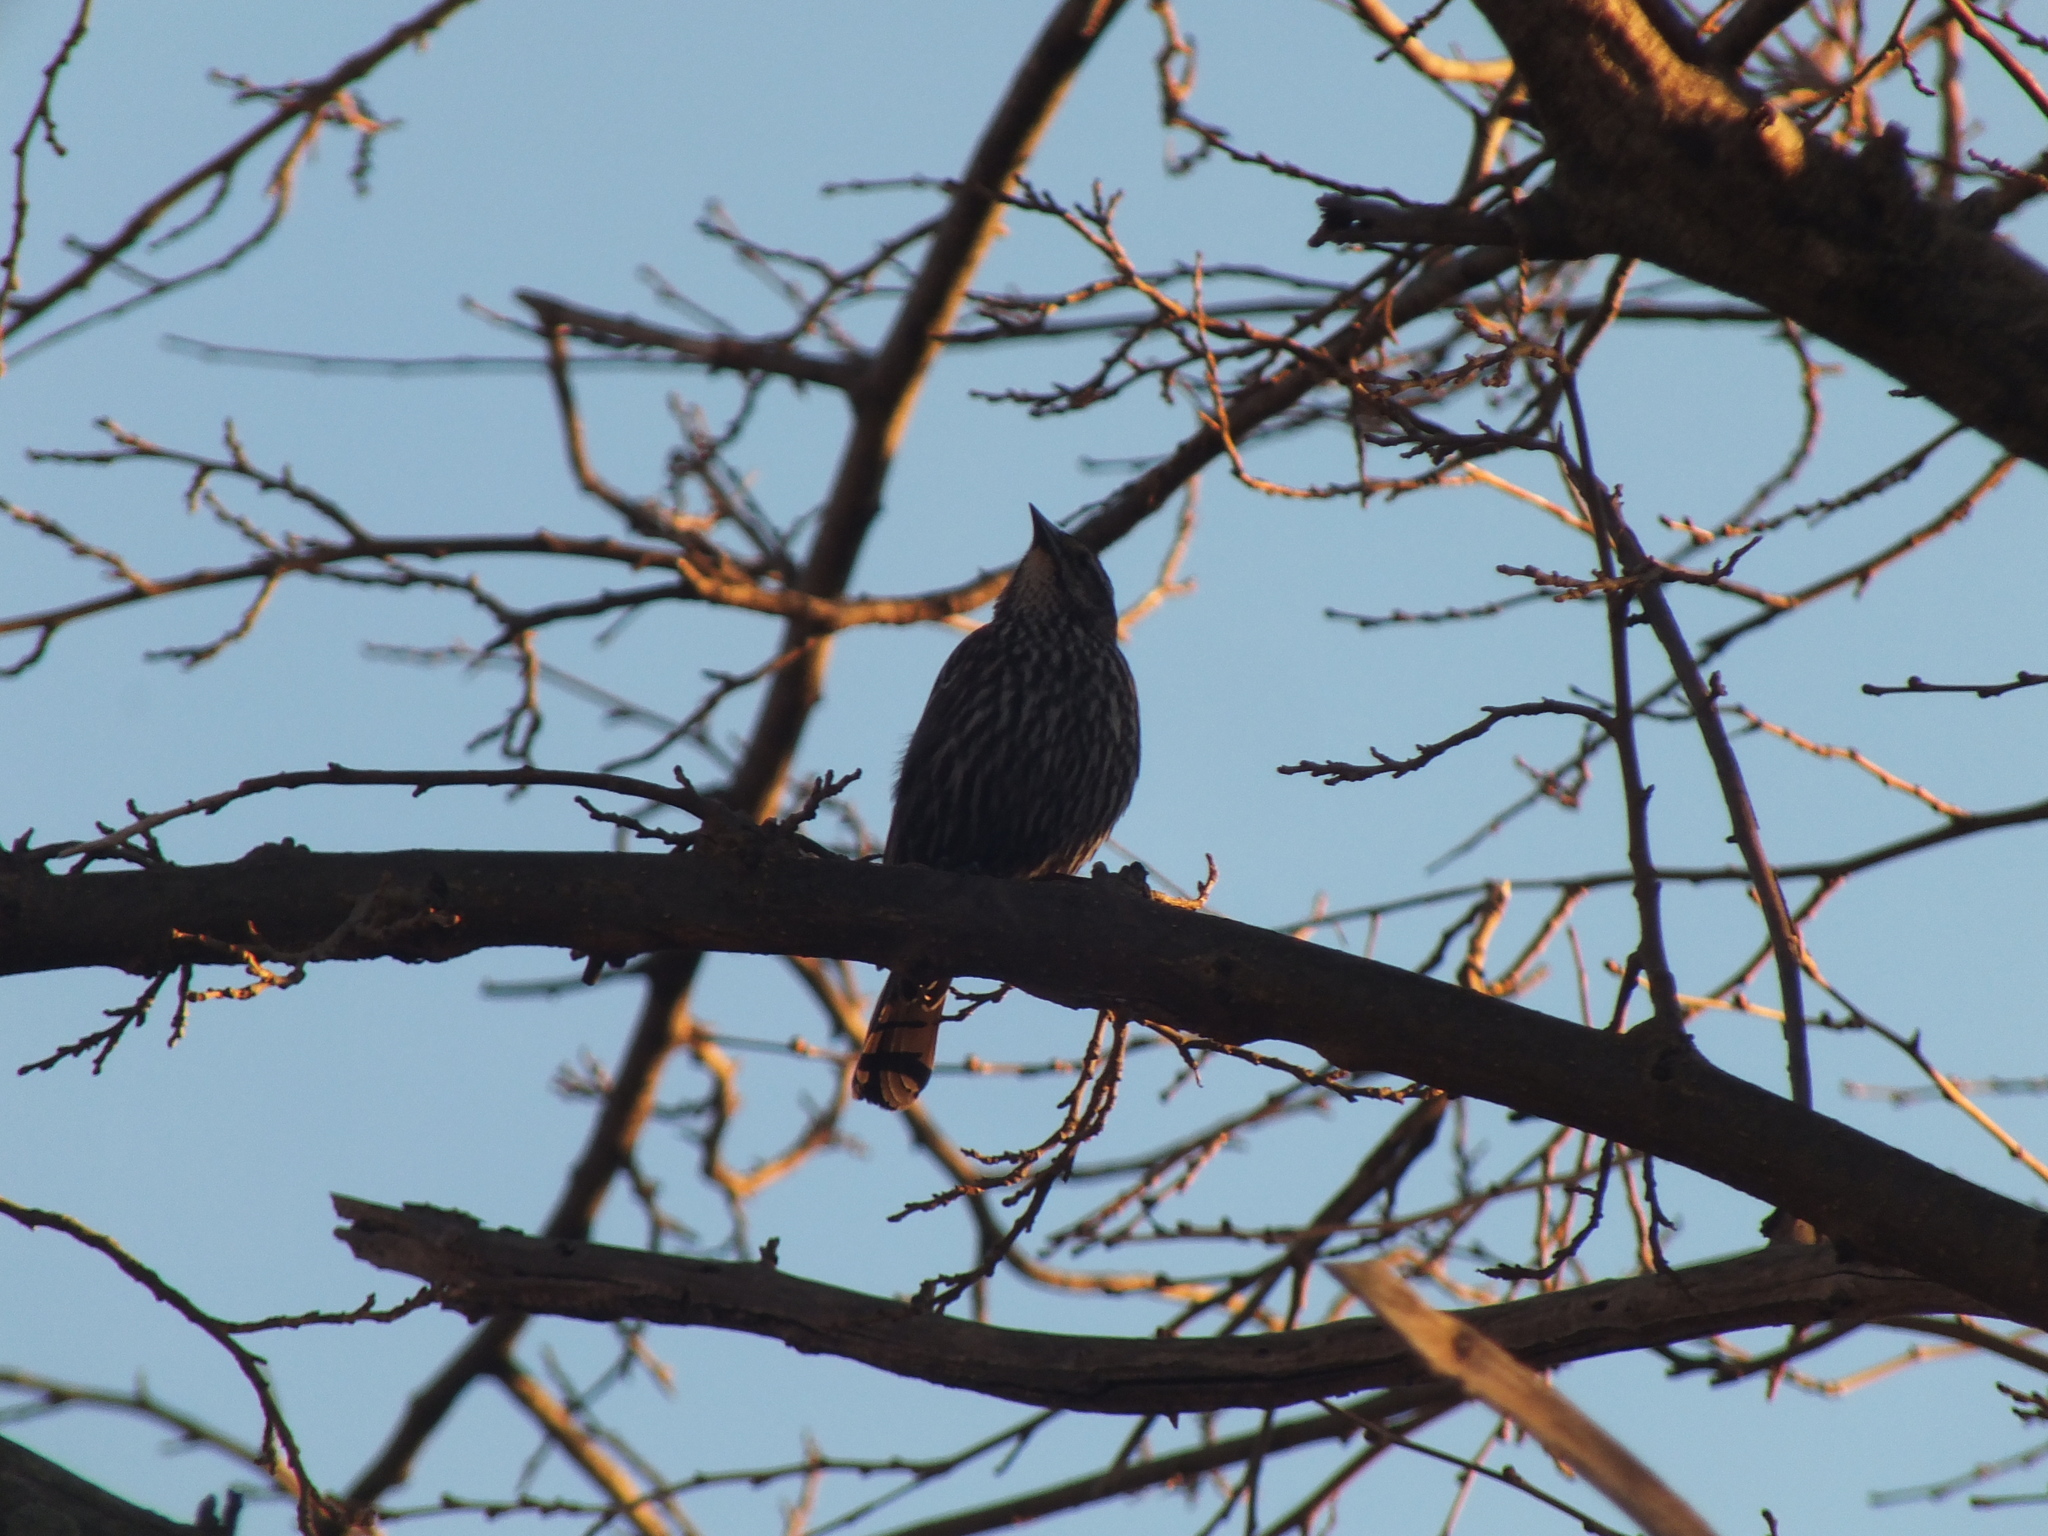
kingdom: Animalia
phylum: Chordata
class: Aves
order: Passeriformes
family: Icteridae
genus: Agelaius
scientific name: Agelaius phoeniceus
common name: Red-winged blackbird
